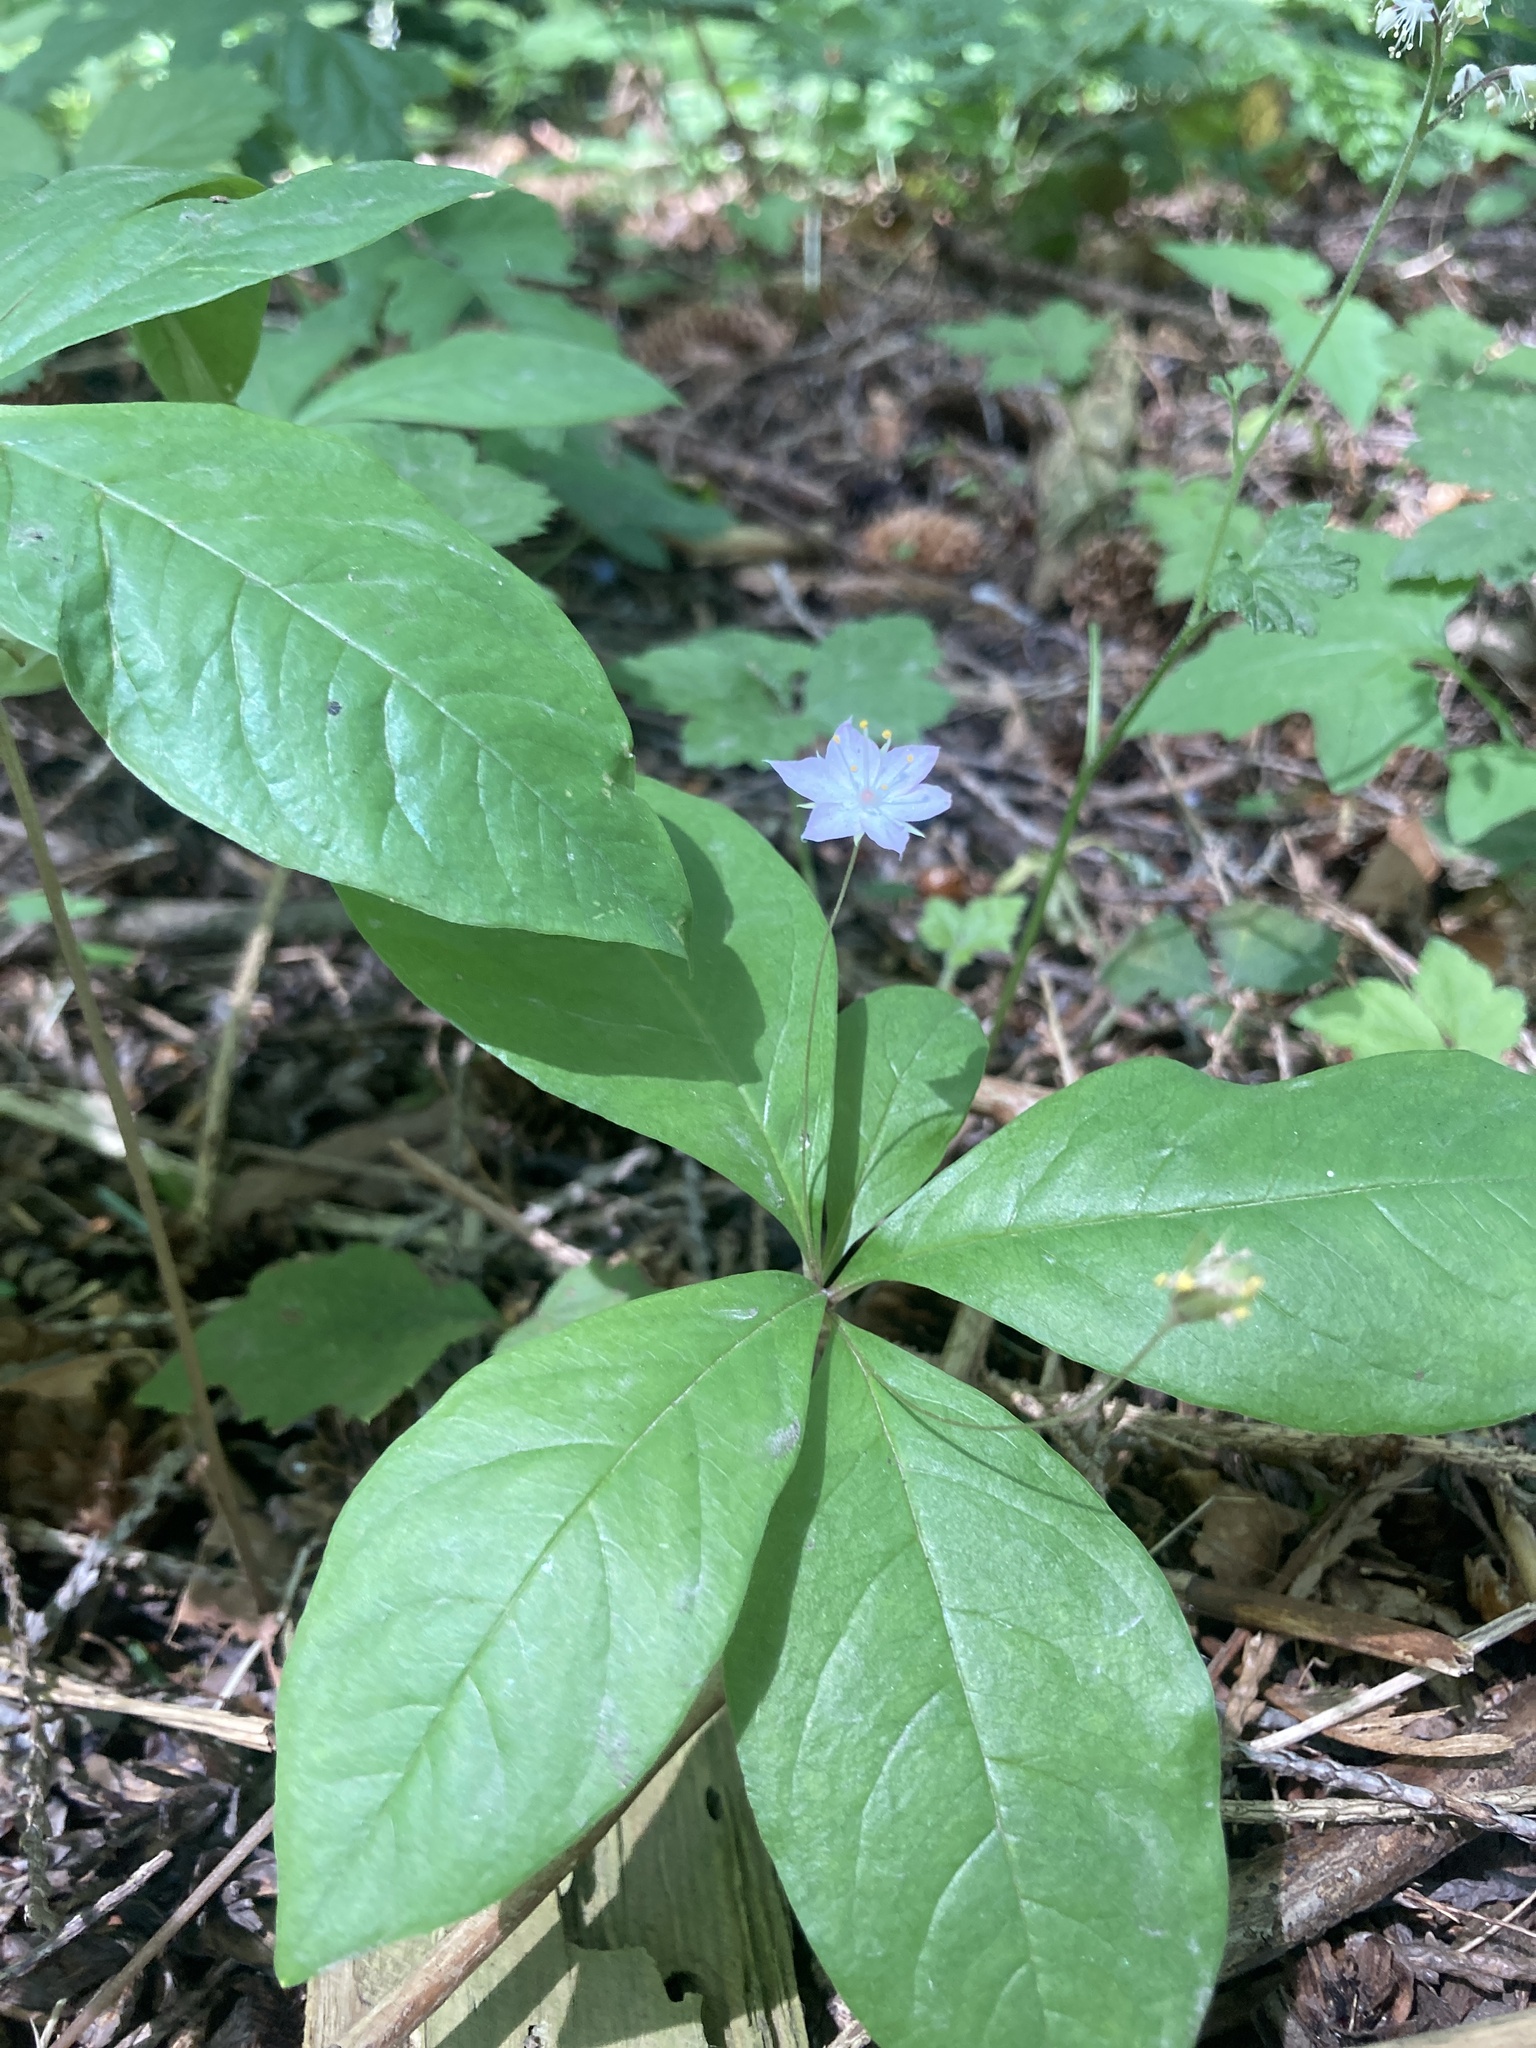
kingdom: Plantae
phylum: Tracheophyta
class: Magnoliopsida
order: Ericales
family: Primulaceae
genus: Lysimachia
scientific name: Lysimachia latifolia
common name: Pacific starflower
